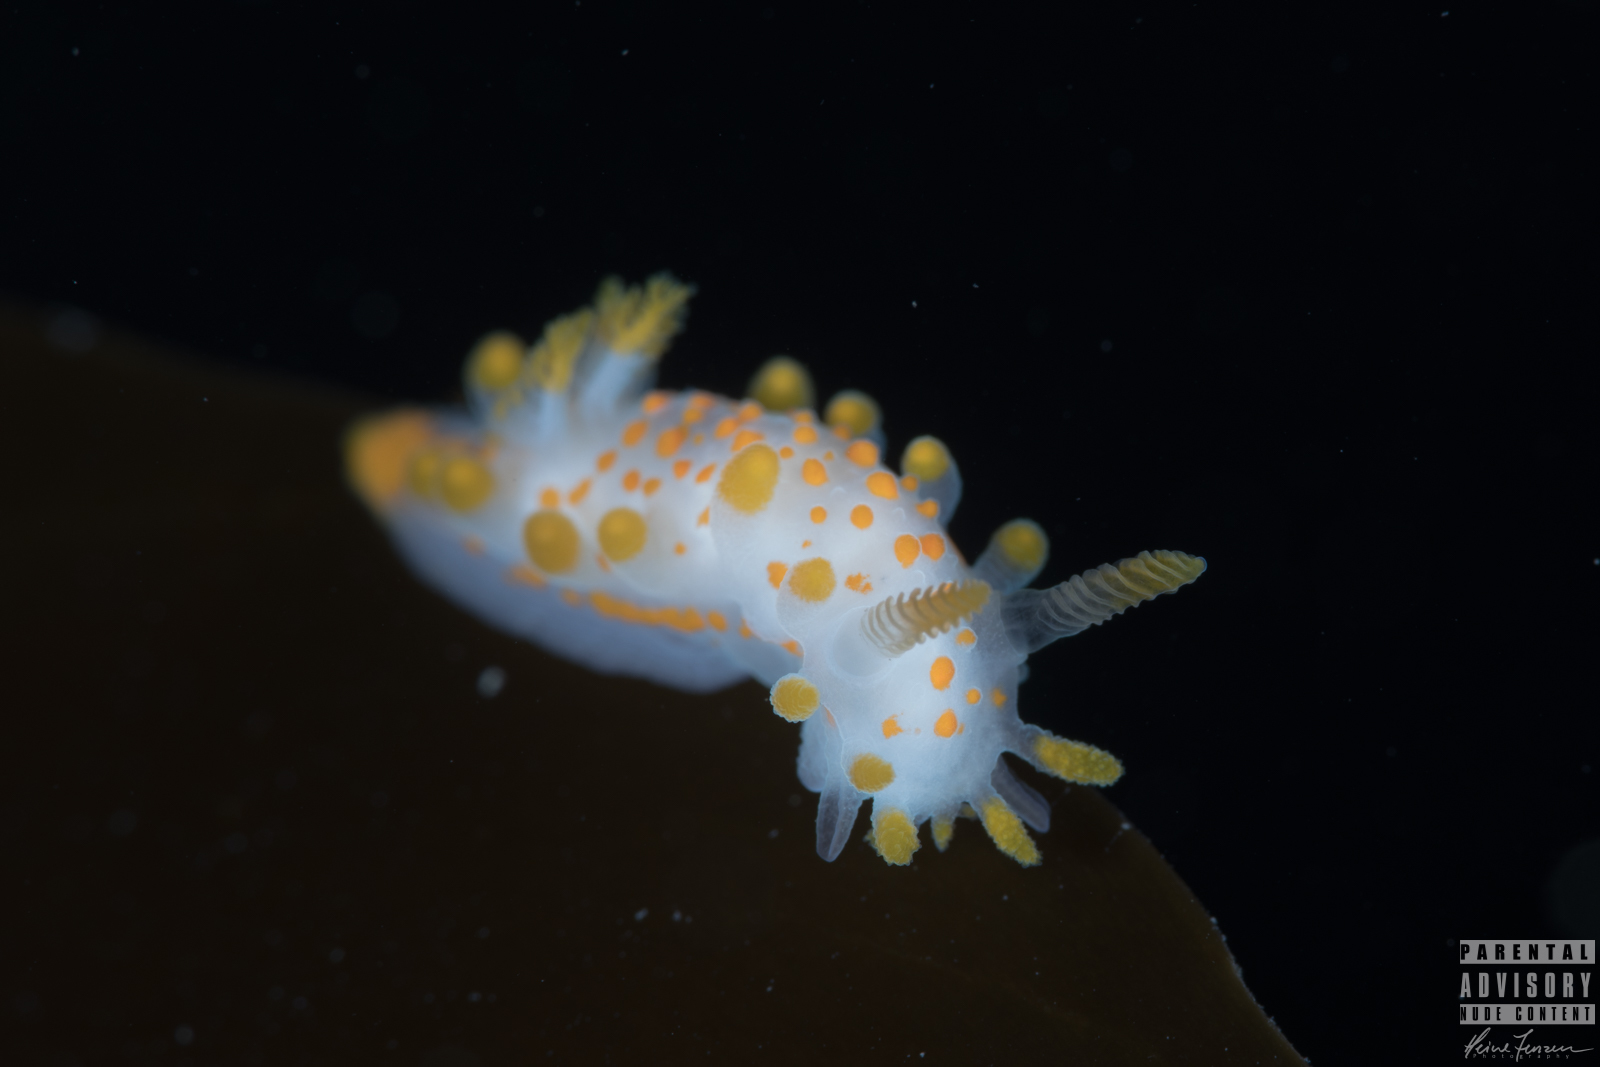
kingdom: Animalia
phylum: Mollusca
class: Gastropoda
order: Nudibranchia
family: Polyceridae
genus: Limacia
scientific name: Limacia clavigera
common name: Orange-clubbed sea slug
